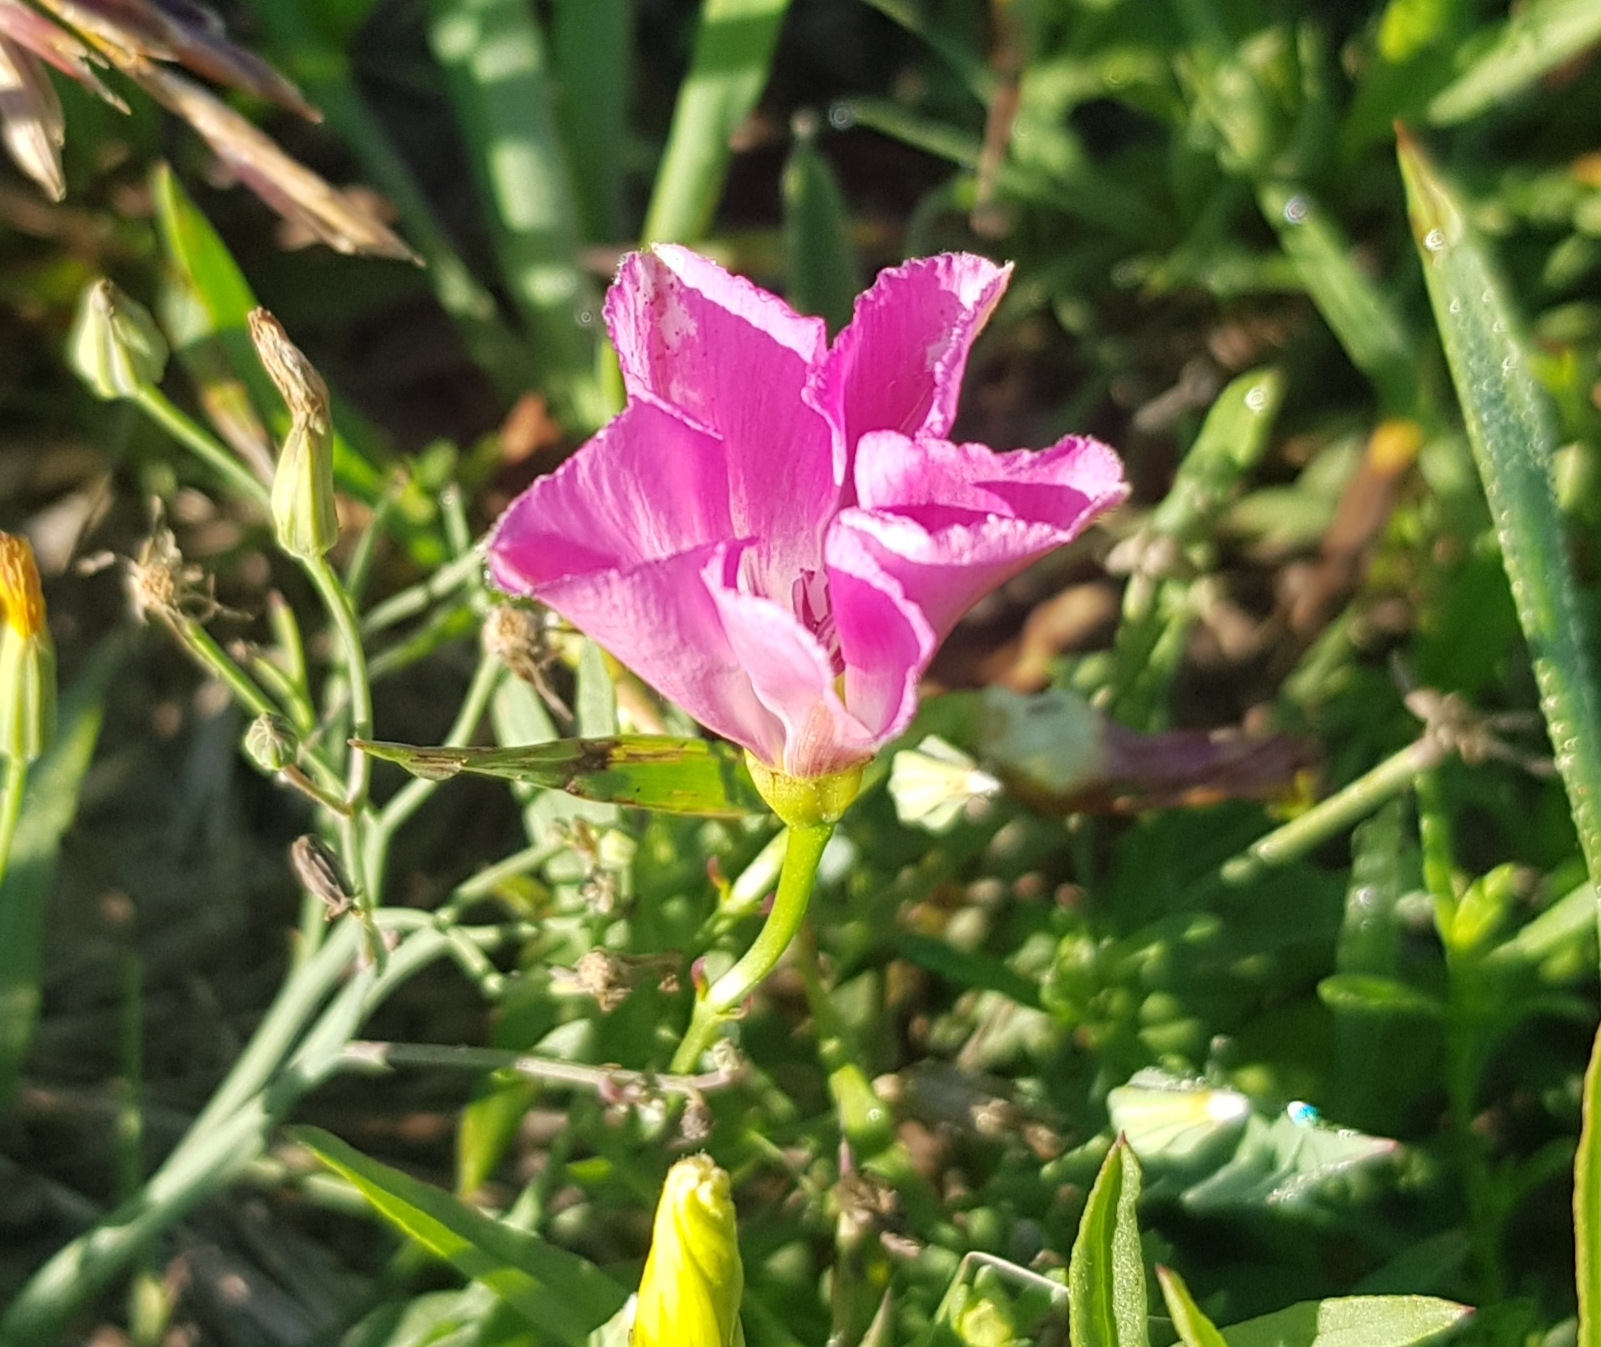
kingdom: Plantae
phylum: Tracheophyta
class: Magnoliopsida
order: Solanales
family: Convolvulaceae
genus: Convolvulus
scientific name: Convolvulus arvensis
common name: Field bindweed
